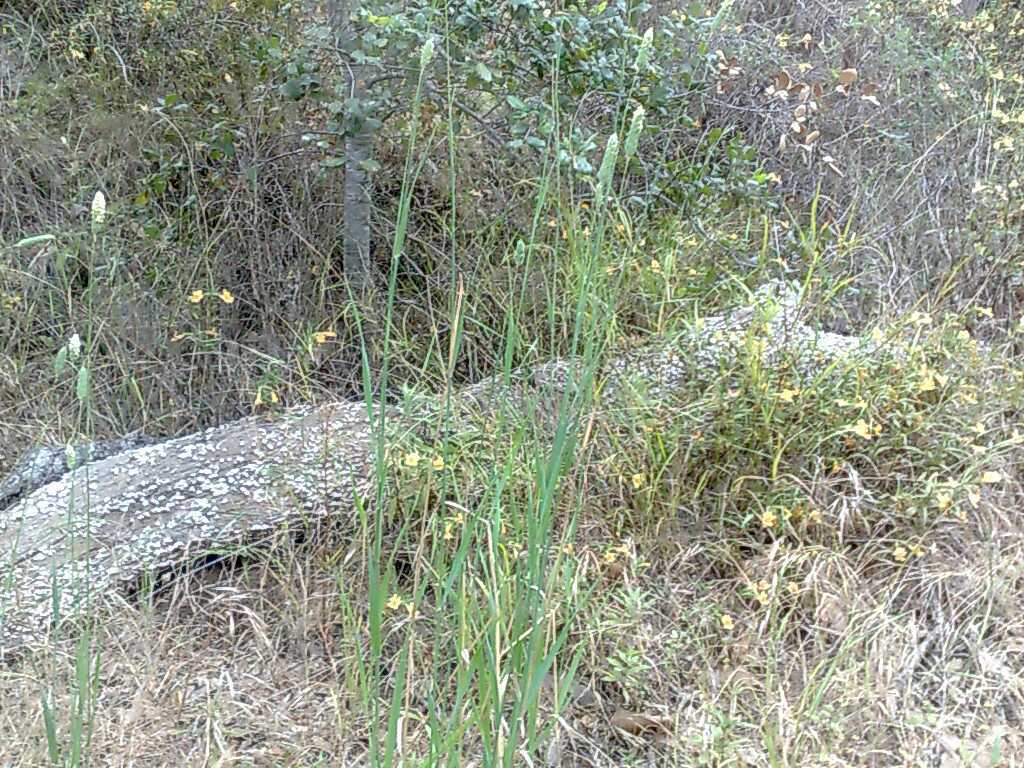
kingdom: Plantae
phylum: Tracheophyta
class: Magnoliopsida
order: Lamiales
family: Phrymaceae
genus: Diplacus
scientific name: Diplacus longiflorus
